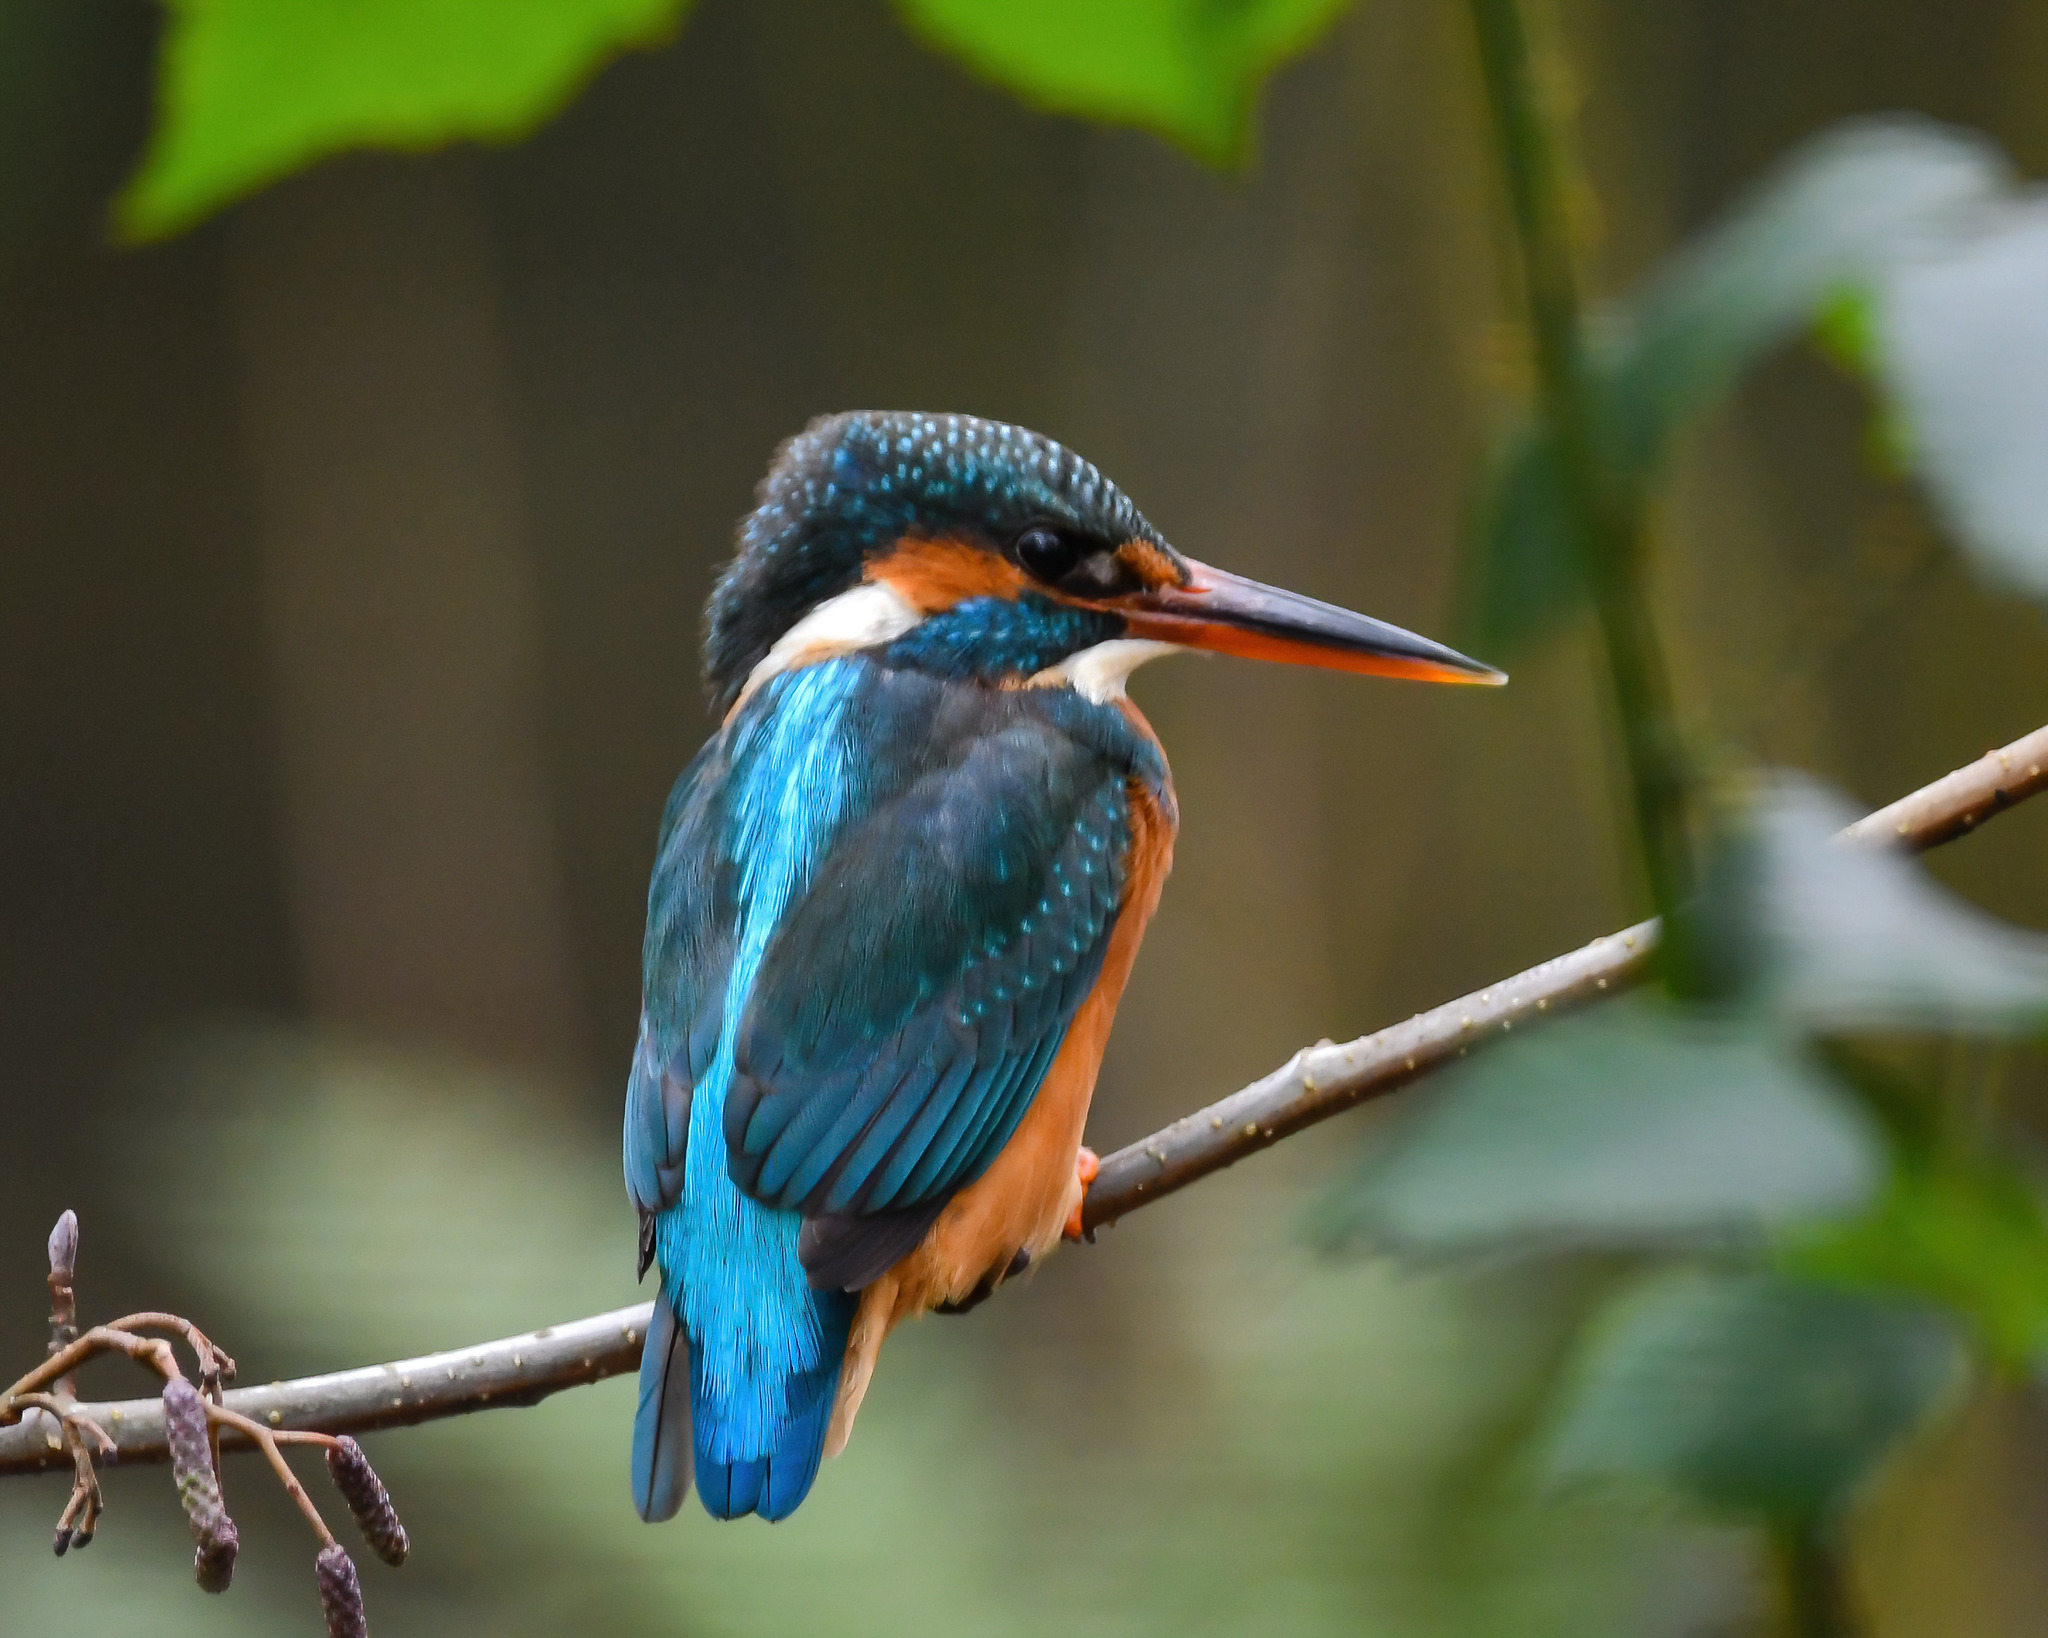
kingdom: Animalia
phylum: Chordata
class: Aves
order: Coraciiformes
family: Alcedinidae
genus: Alcedo
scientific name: Alcedo atthis
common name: Common kingfisher
